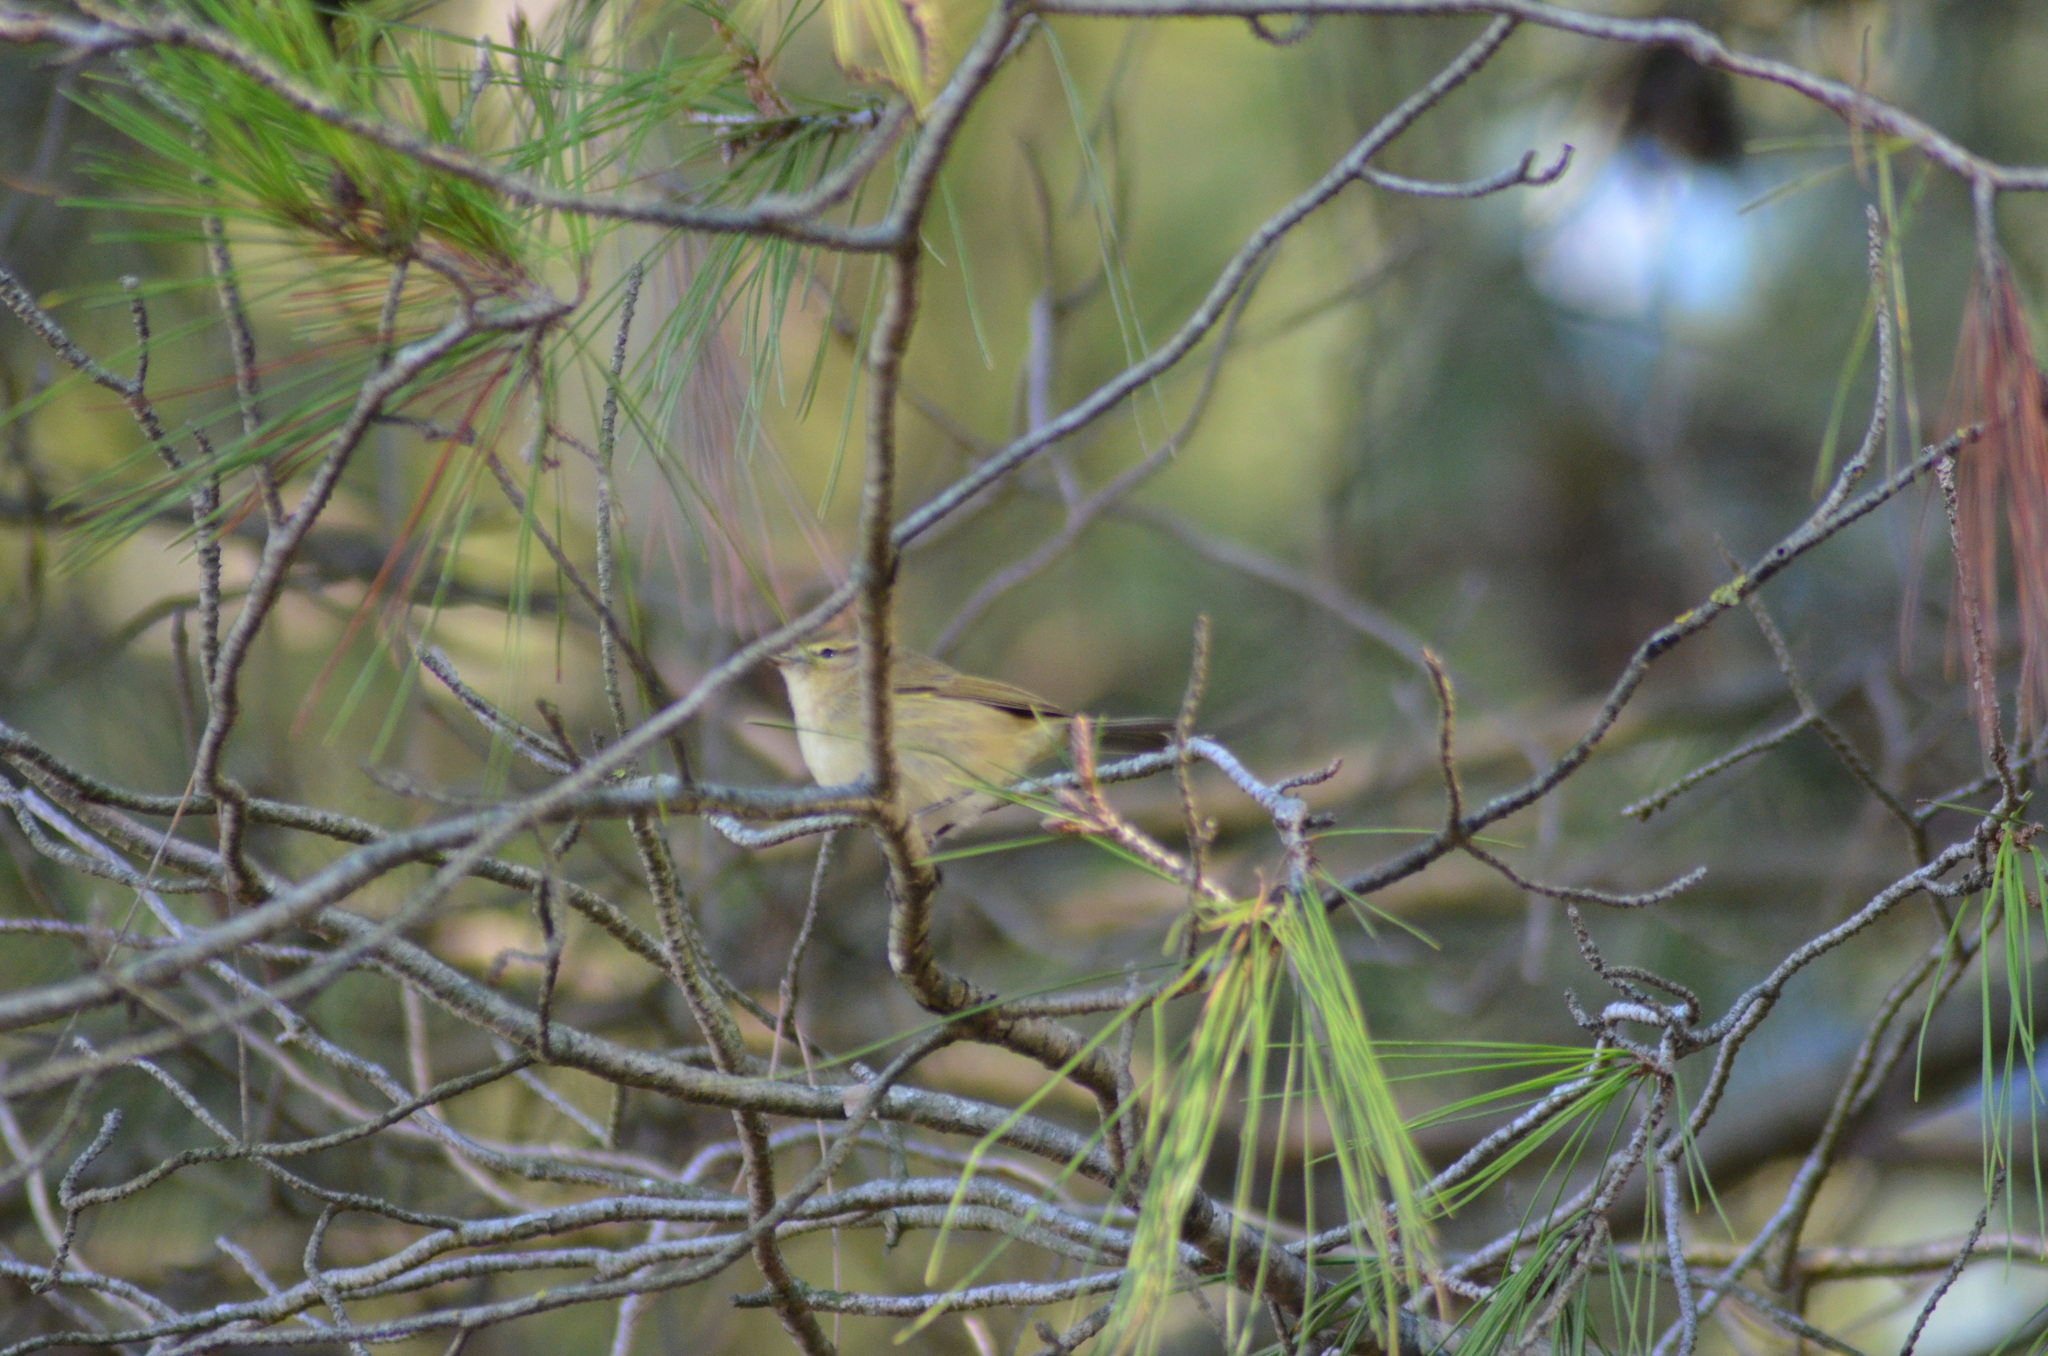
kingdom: Animalia
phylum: Chordata
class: Aves
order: Passeriformes
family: Phylloscopidae
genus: Phylloscopus
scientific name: Phylloscopus collybita
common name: Common chiffchaff
